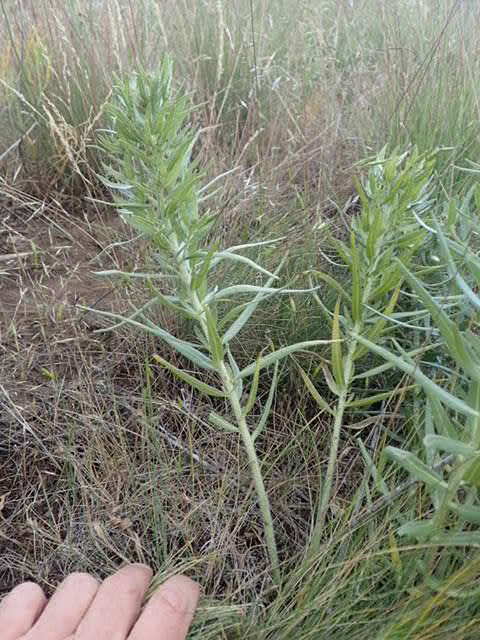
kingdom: Plantae
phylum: Tracheophyta
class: Magnoliopsida
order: Boraginales
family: Boraginaceae
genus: Lithospermum
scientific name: Lithospermum ruderale
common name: Western gromwell
